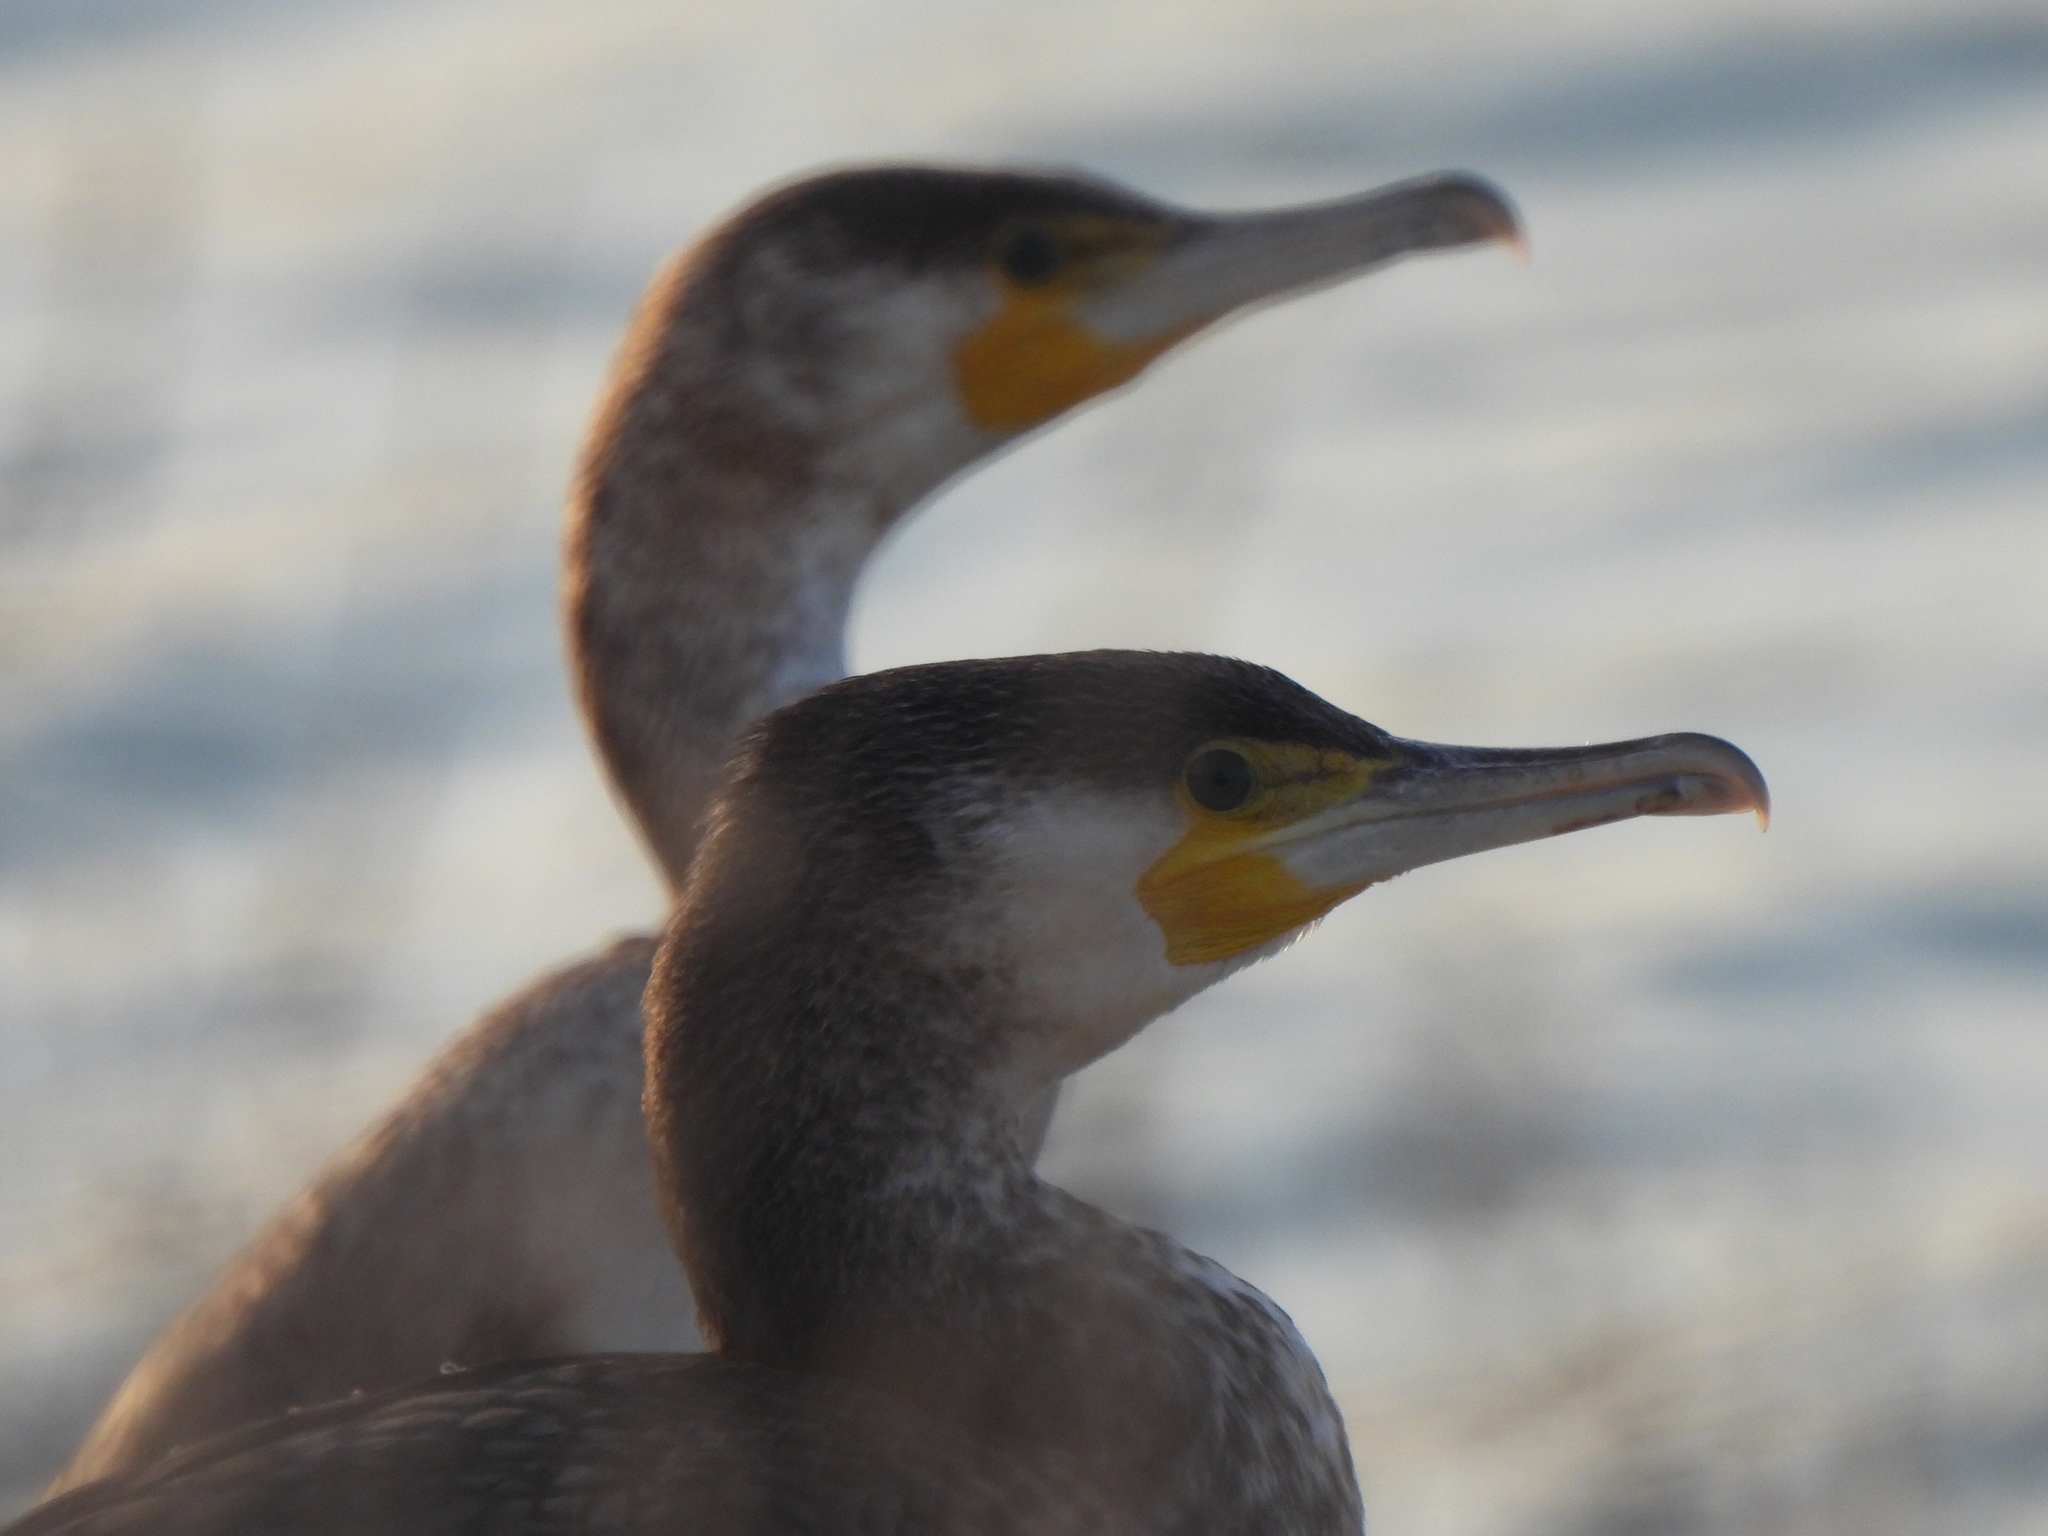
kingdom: Animalia
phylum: Chordata
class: Aves
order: Suliformes
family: Phalacrocoracidae
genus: Phalacrocorax
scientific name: Phalacrocorax carbo
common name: Great cormorant
